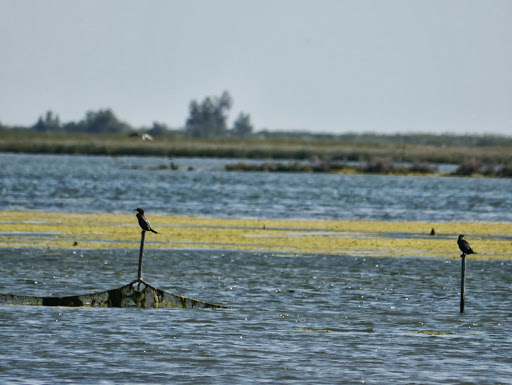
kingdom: Animalia
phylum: Chordata
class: Aves
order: Suliformes
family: Phalacrocoracidae
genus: Microcarbo
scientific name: Microcarbo pygmaeus
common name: Pygmy cormorant
